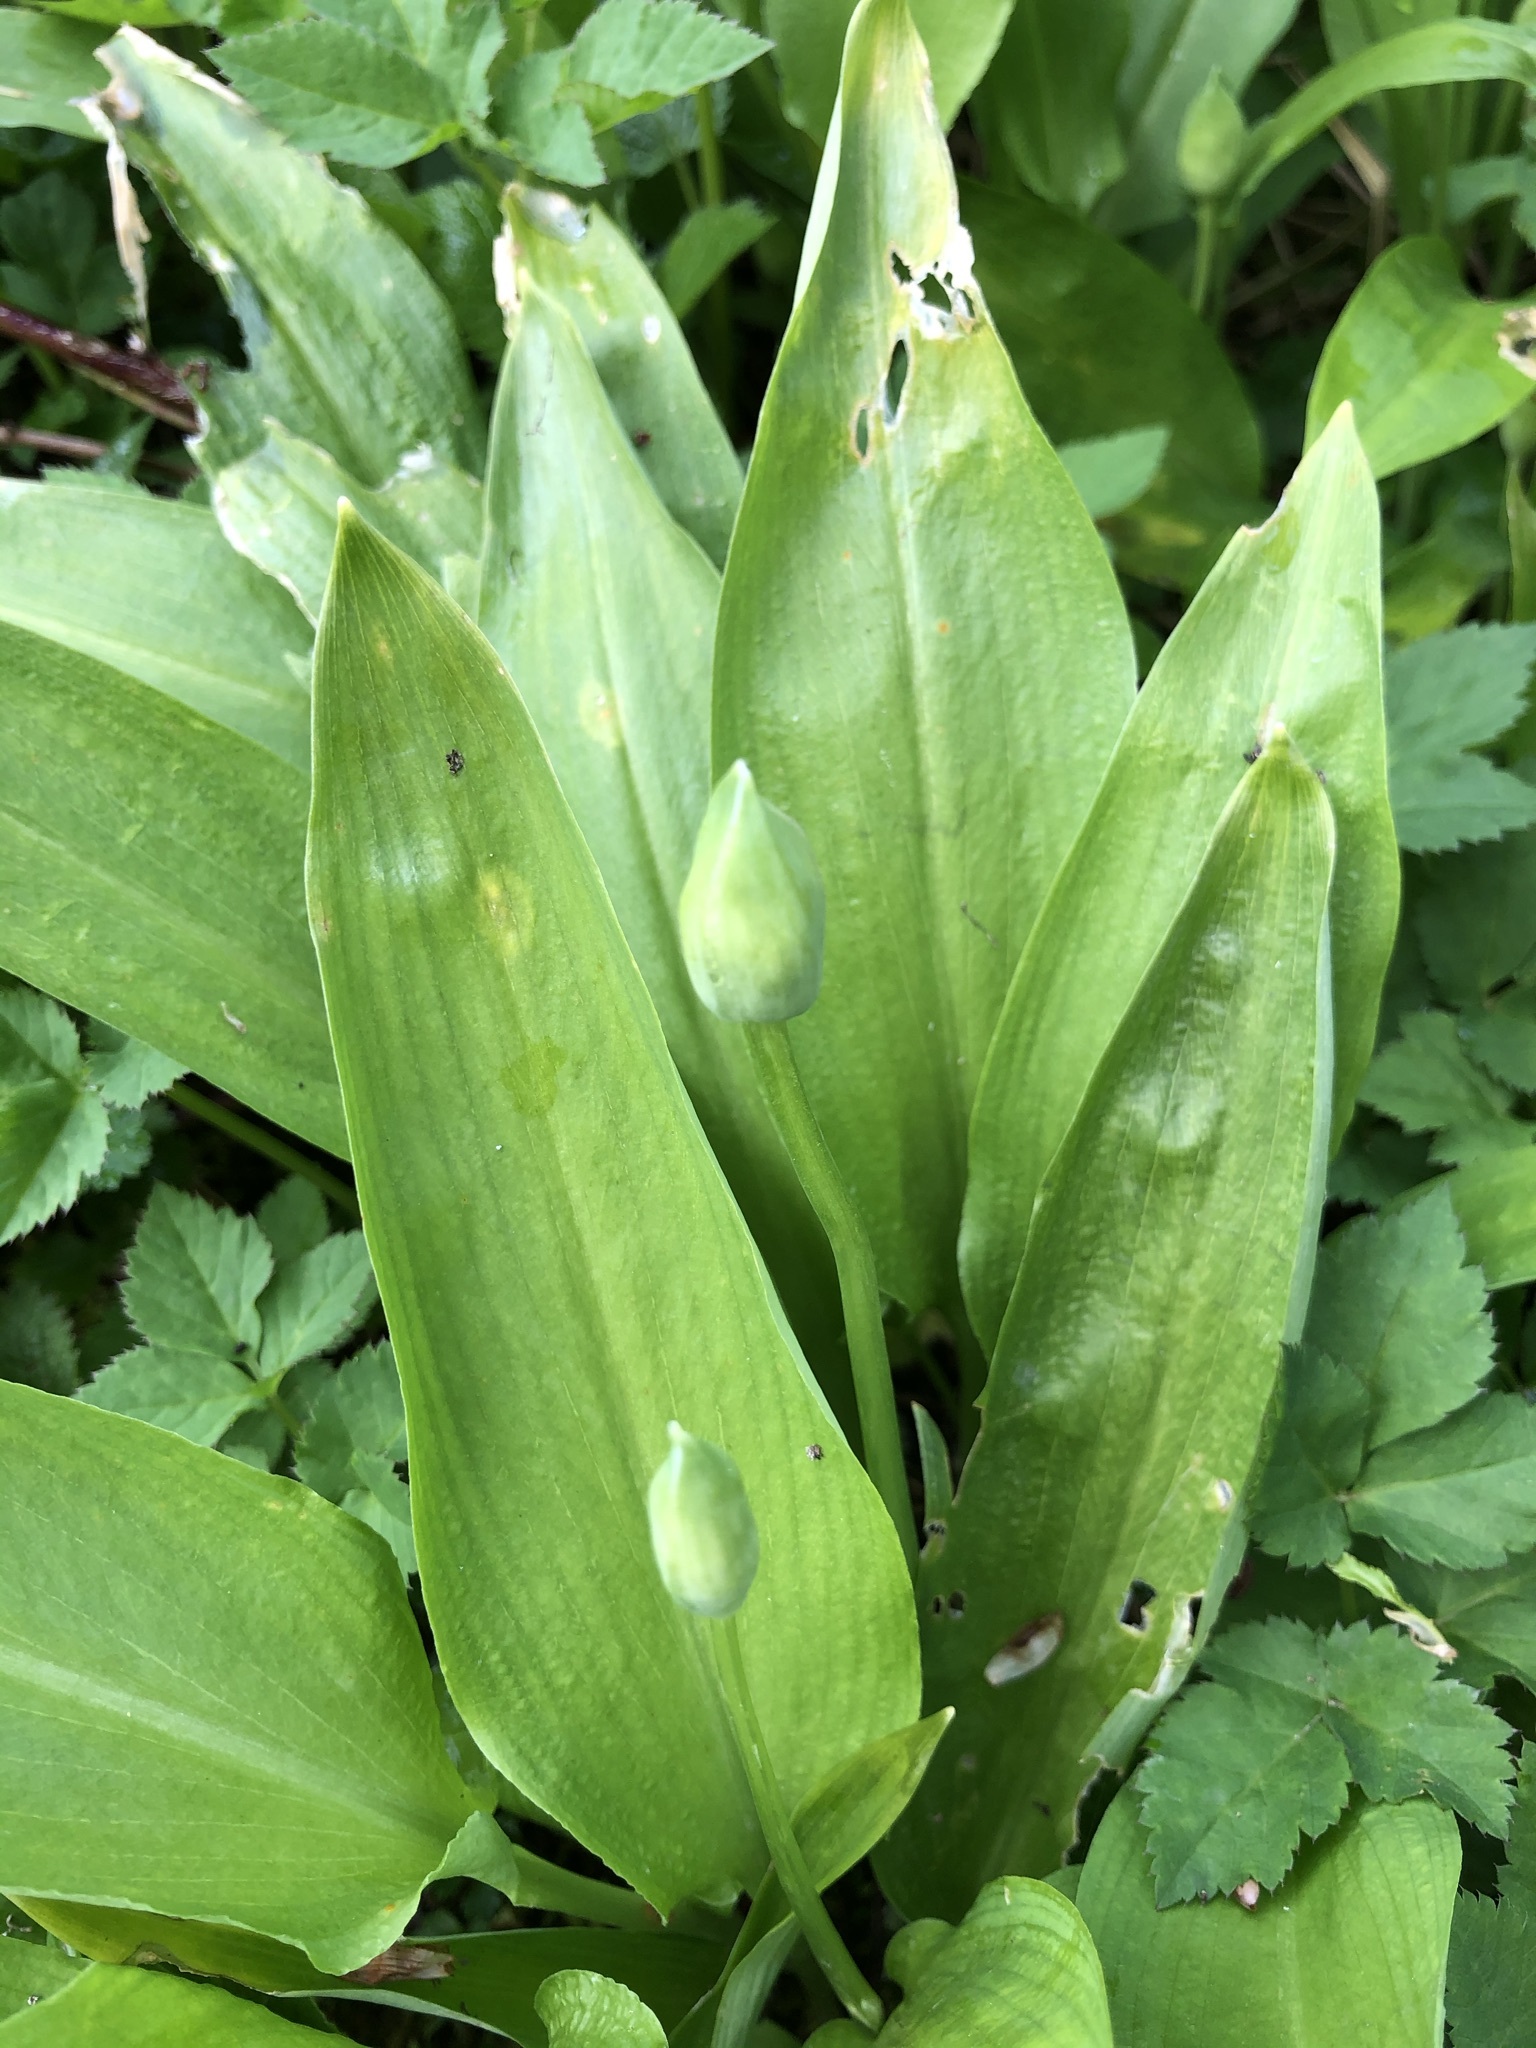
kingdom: Plantae
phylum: Tracheophyta
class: Liliopsida
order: Asparagales
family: Amaryllidaceae
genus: Allium
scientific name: Allium ursinum
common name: Ramsons
